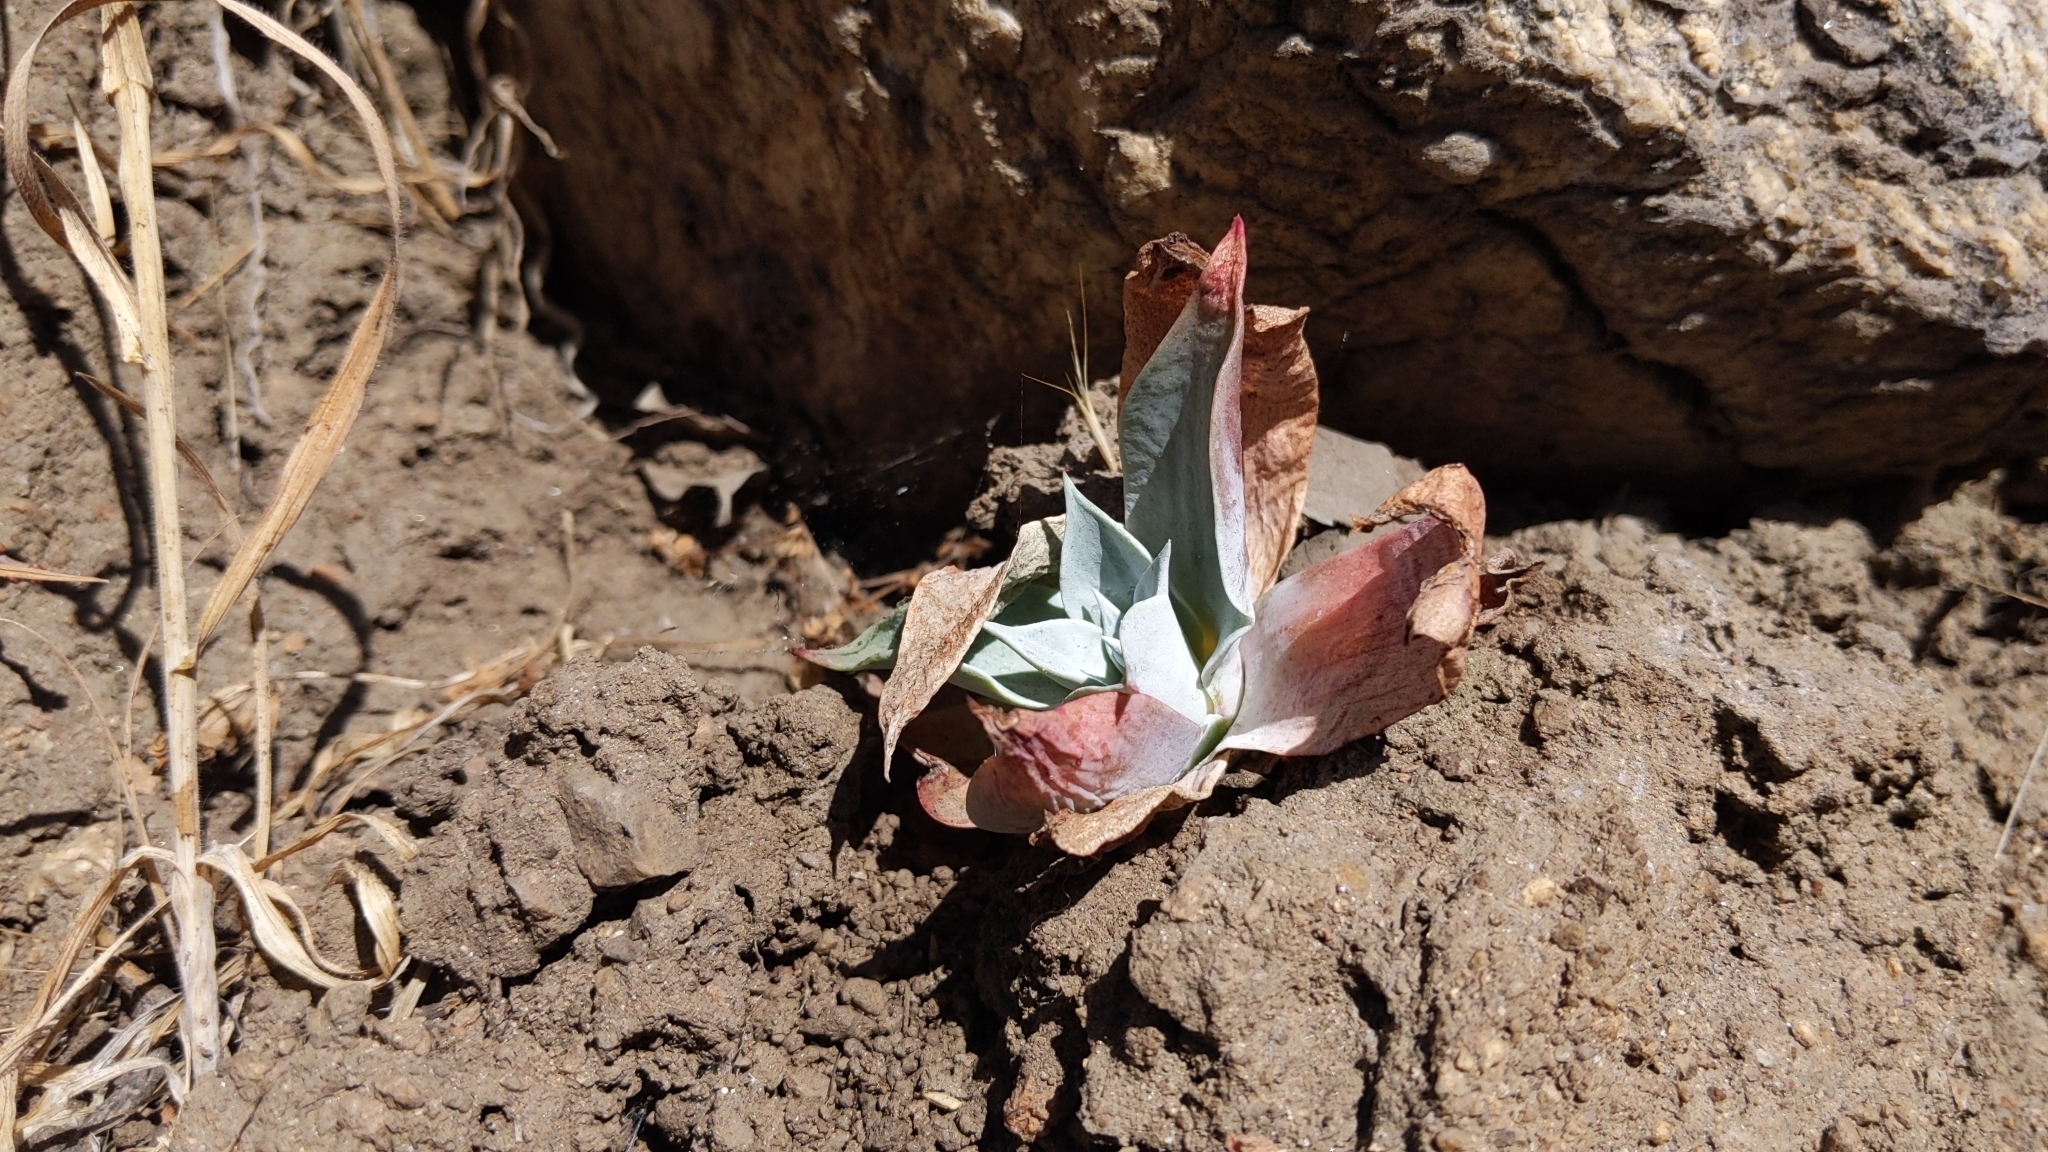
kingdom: Plantae
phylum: Tracheophyta
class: Magnoliopsida
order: Saxifragales
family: Crassulaceae
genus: Dudleya
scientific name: Dudleya pulverulenta
